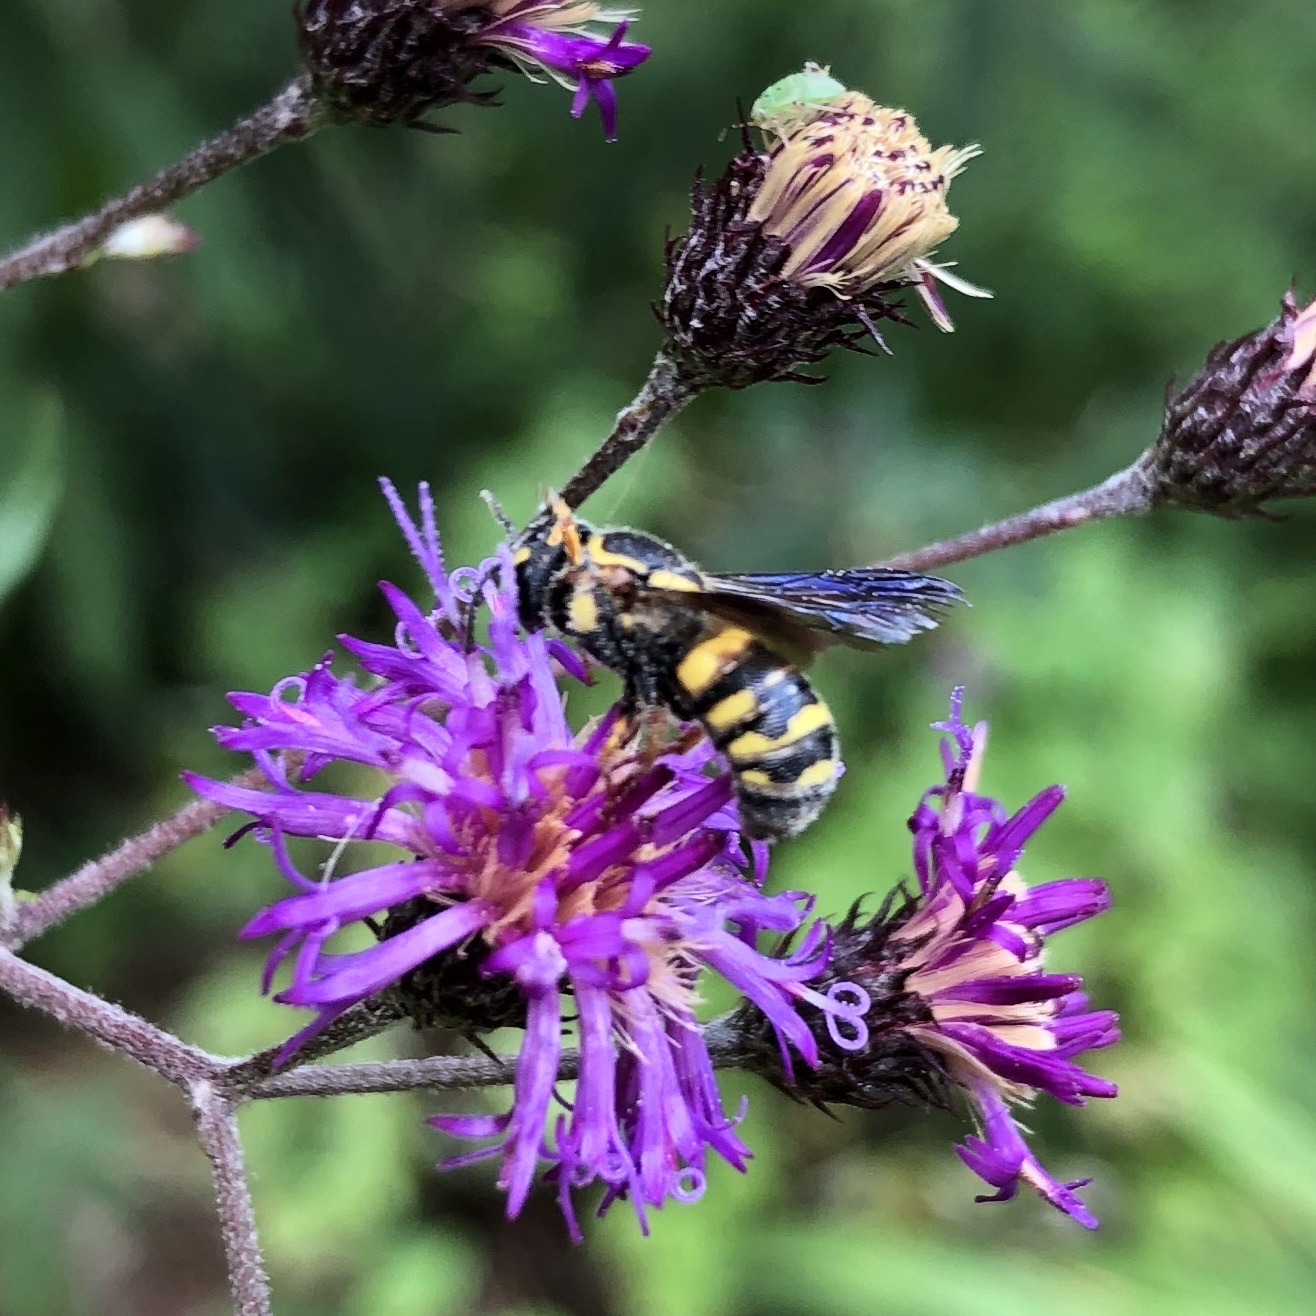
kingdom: Animalia
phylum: Arthropoda
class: Insecta
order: Hymenoptera
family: Megachilidae
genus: Stelis
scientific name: Stelis louisae
